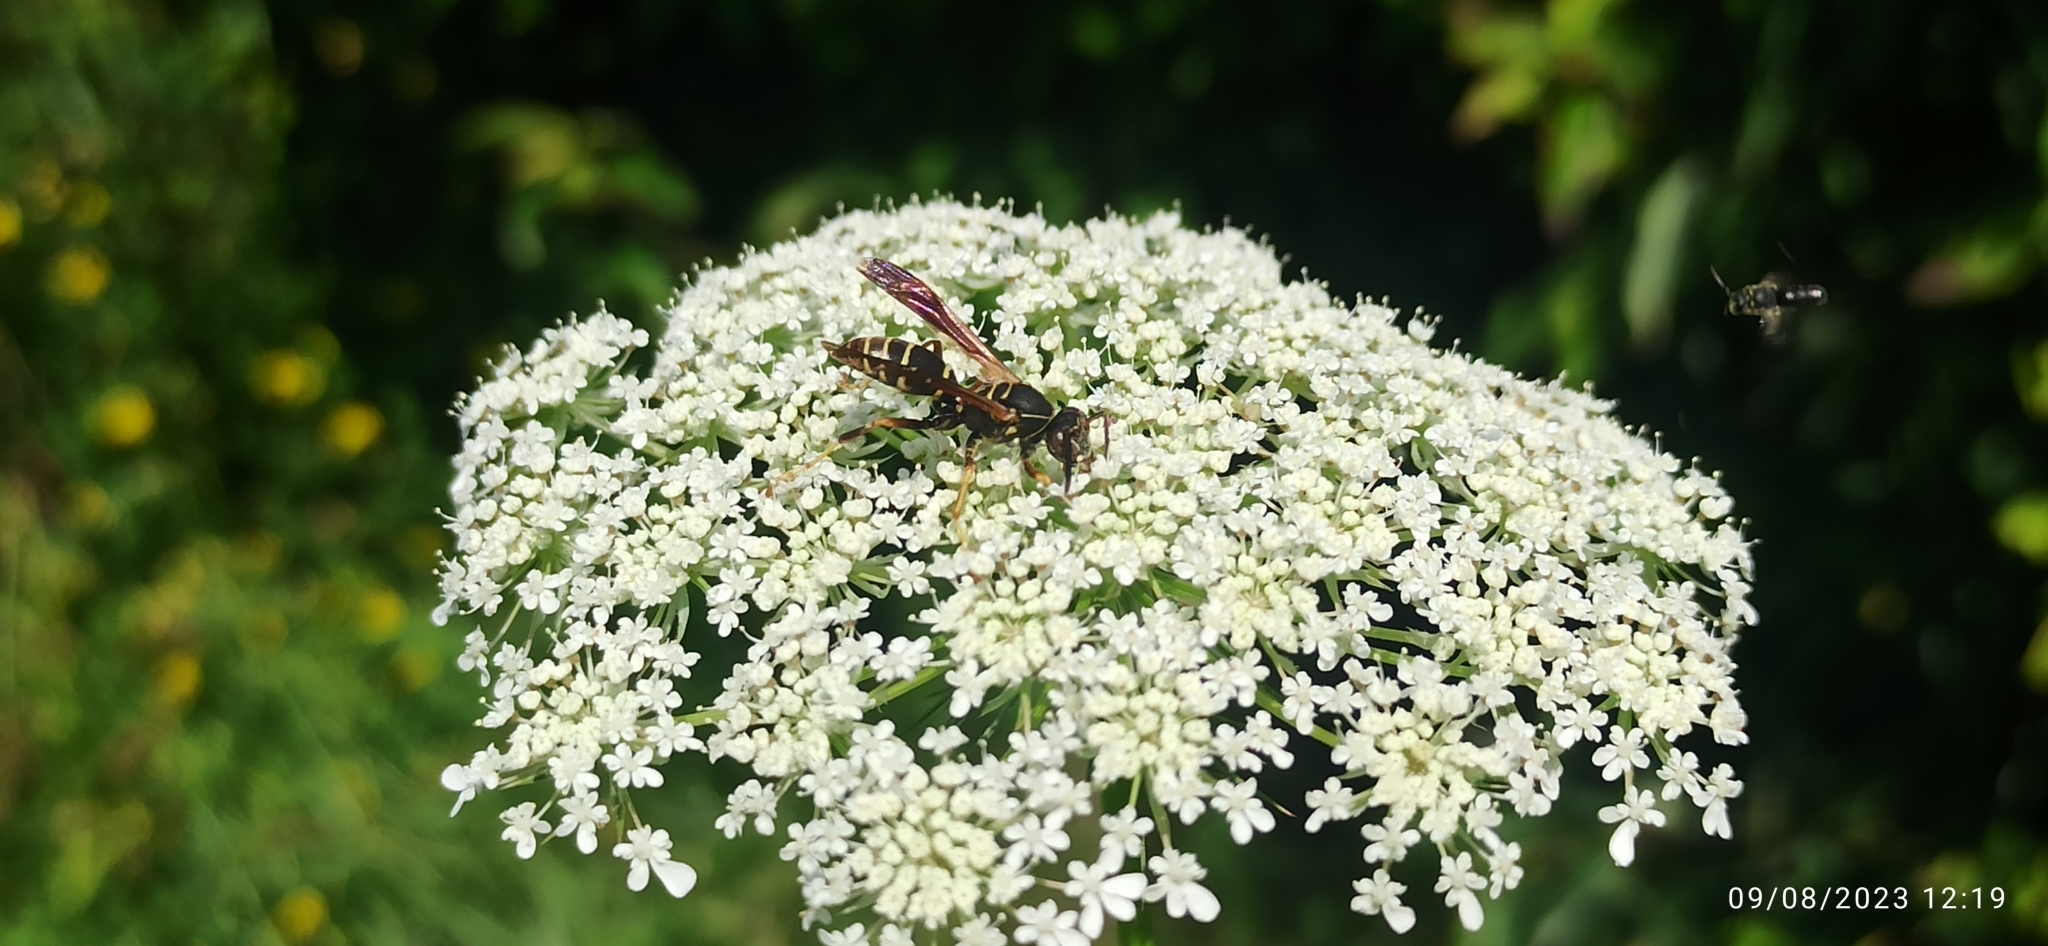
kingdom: Animalia
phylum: Arthropoda
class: Insecta
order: Hymenoptera
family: Eumenidae
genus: Polistes
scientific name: Polistes fuscatus
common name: Dark paper wasp
